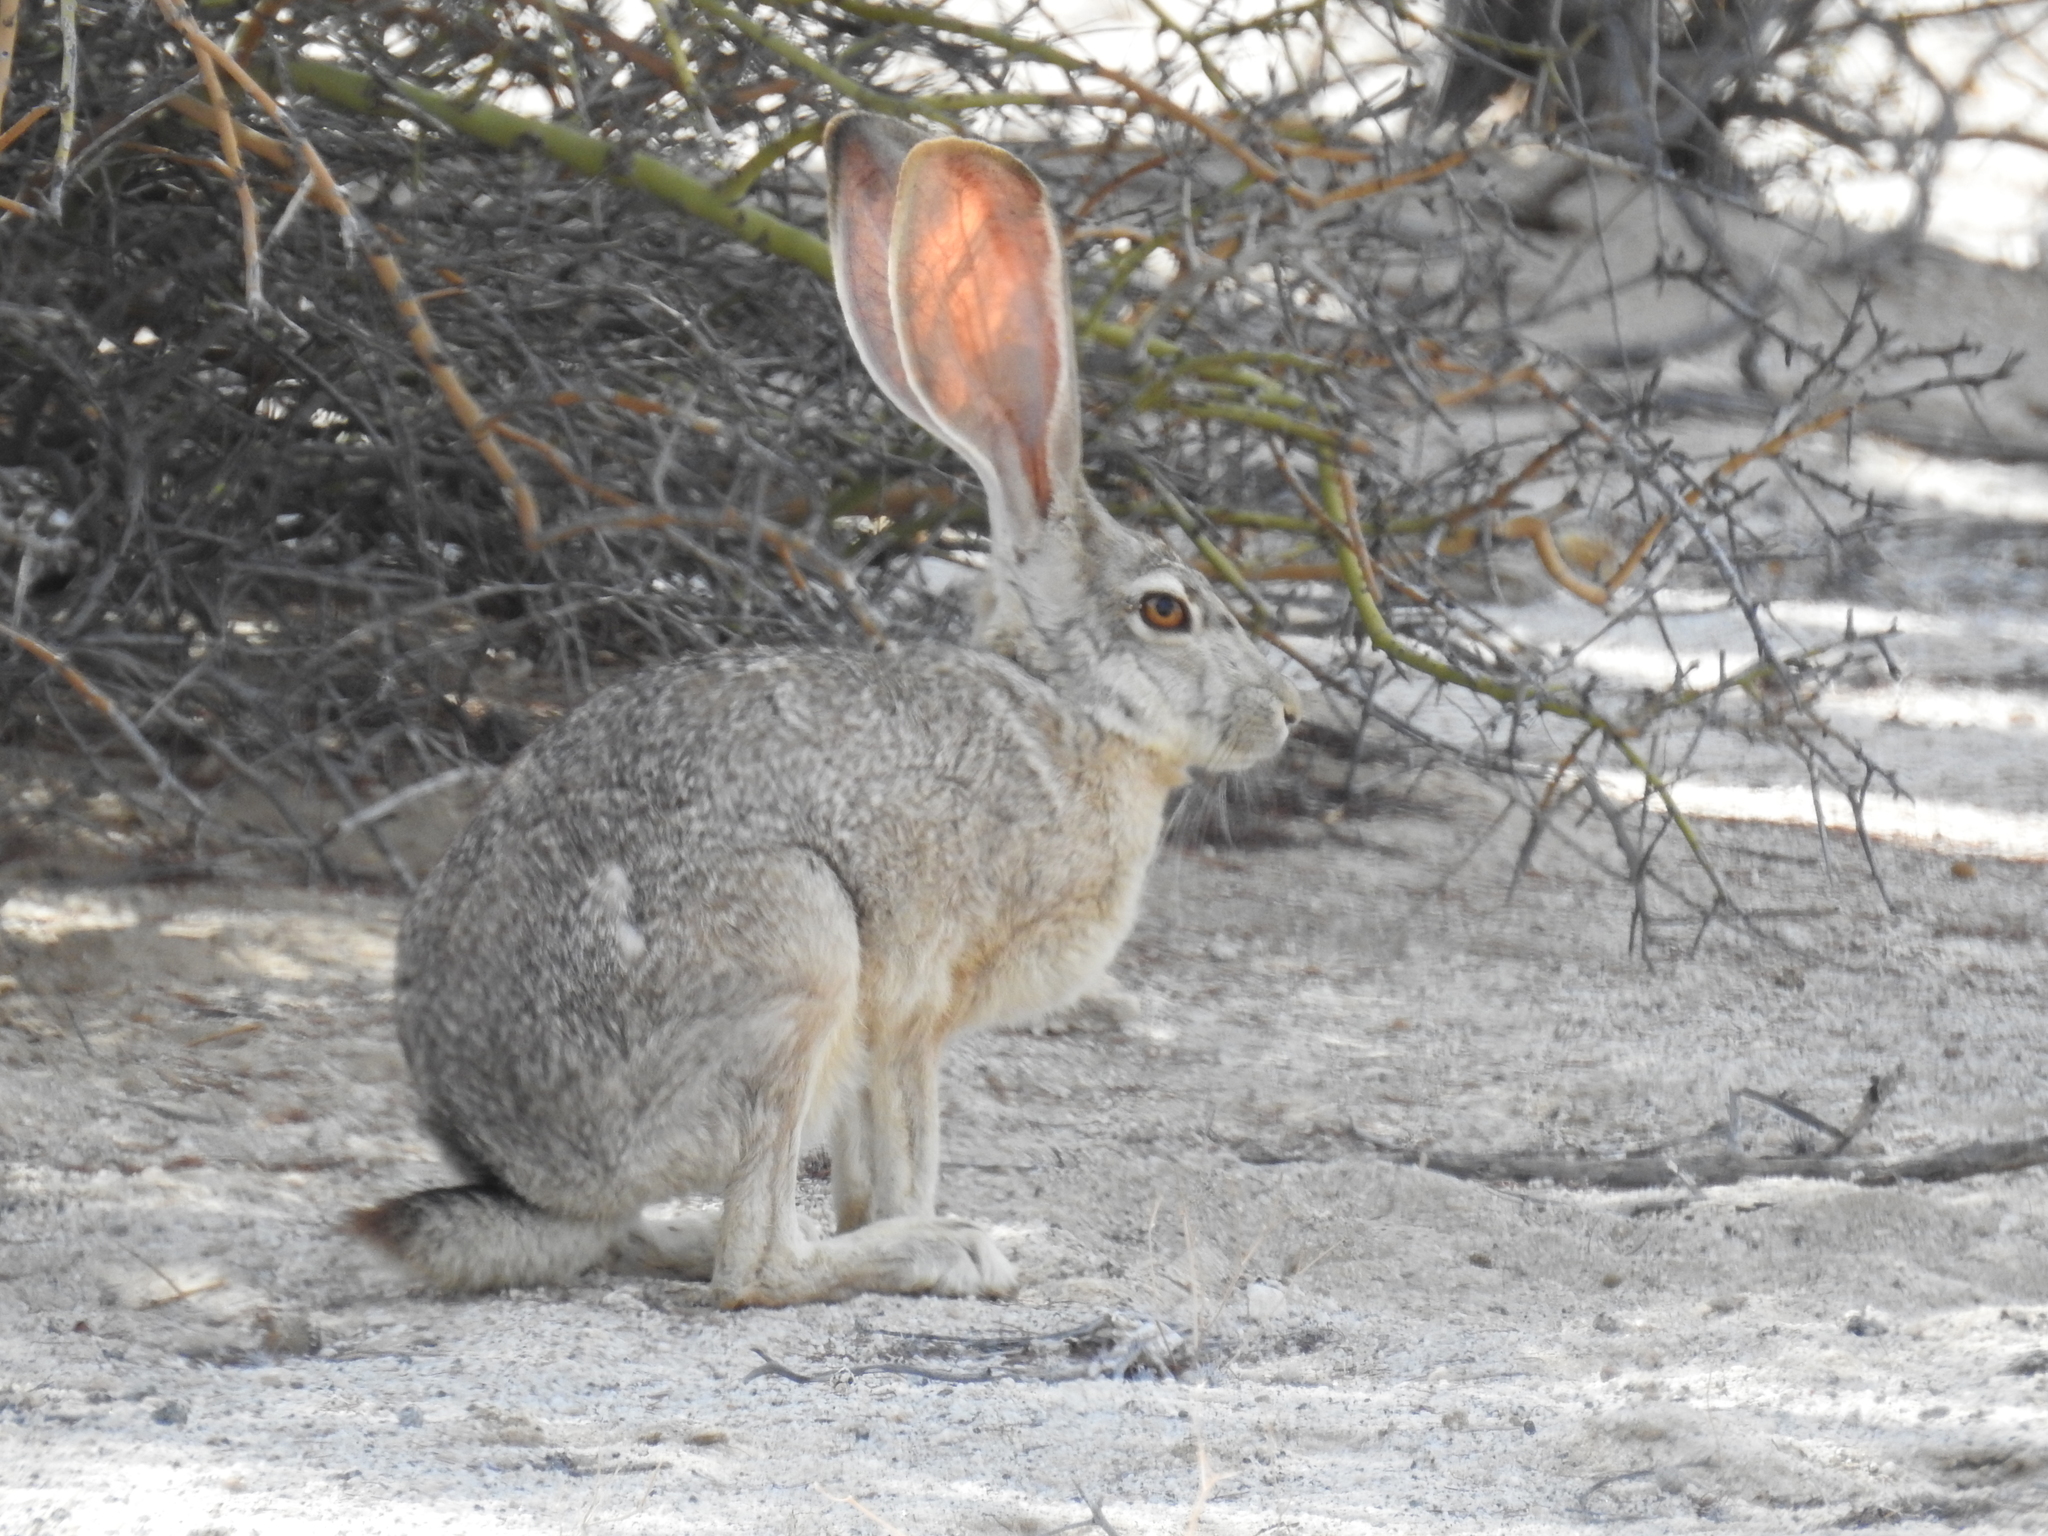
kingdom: Animalia
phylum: Chordata
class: Mammalia
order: Lagomorpha
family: Leporidae
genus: Lepus
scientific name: Lepus californicus
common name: Black-tailed jackrabbit
